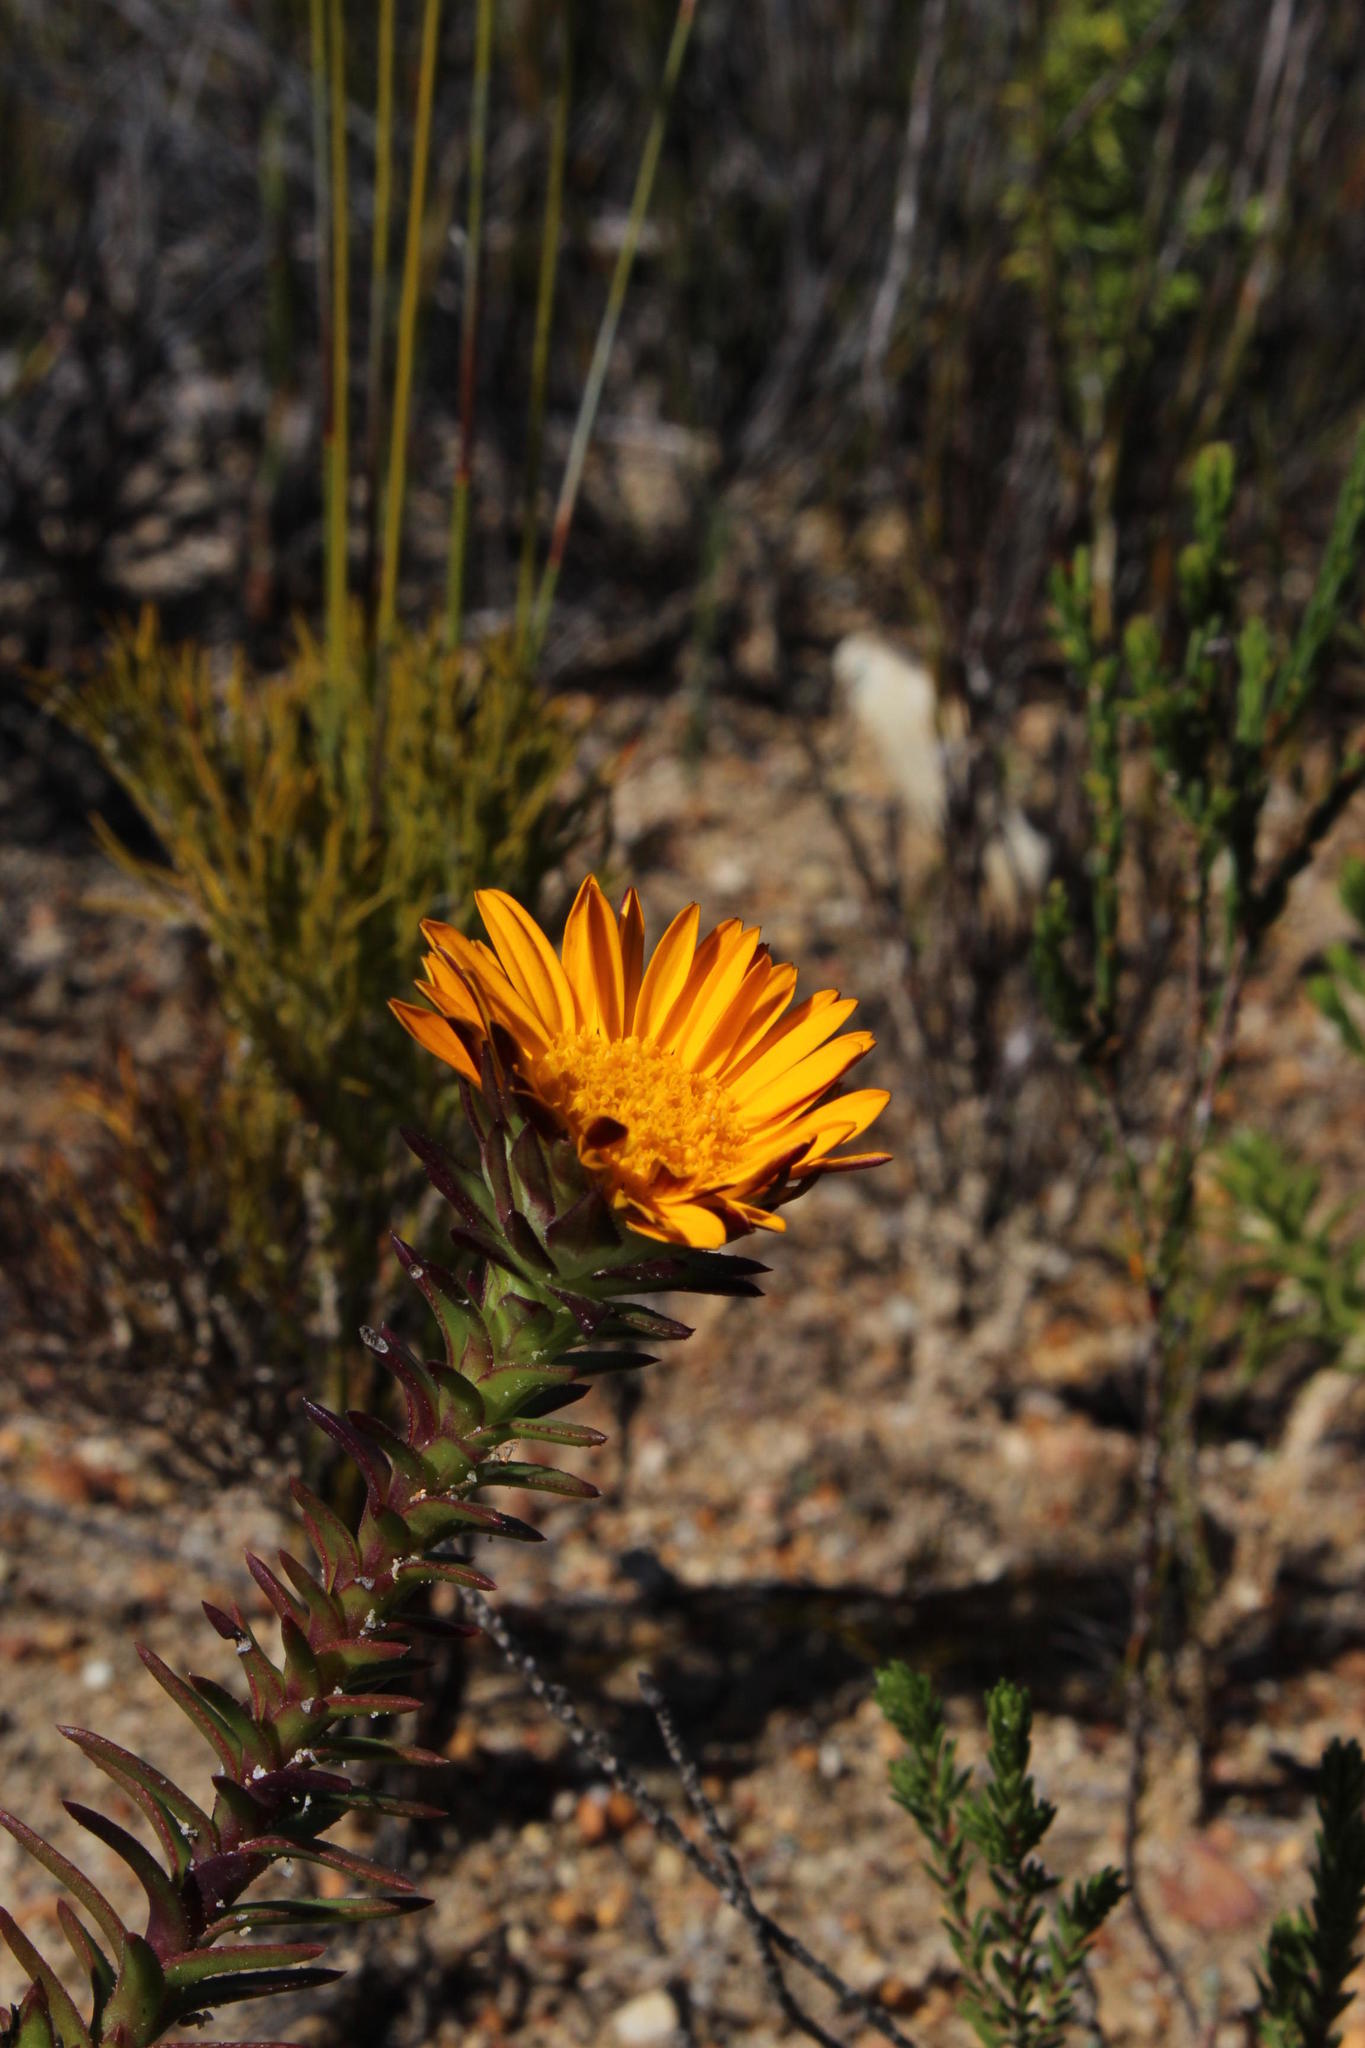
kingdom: Plantae
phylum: Tracheophyta
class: Magnoliopsida
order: Asterales
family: Asteraceae
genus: Oedera
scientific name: Oedera capensis
